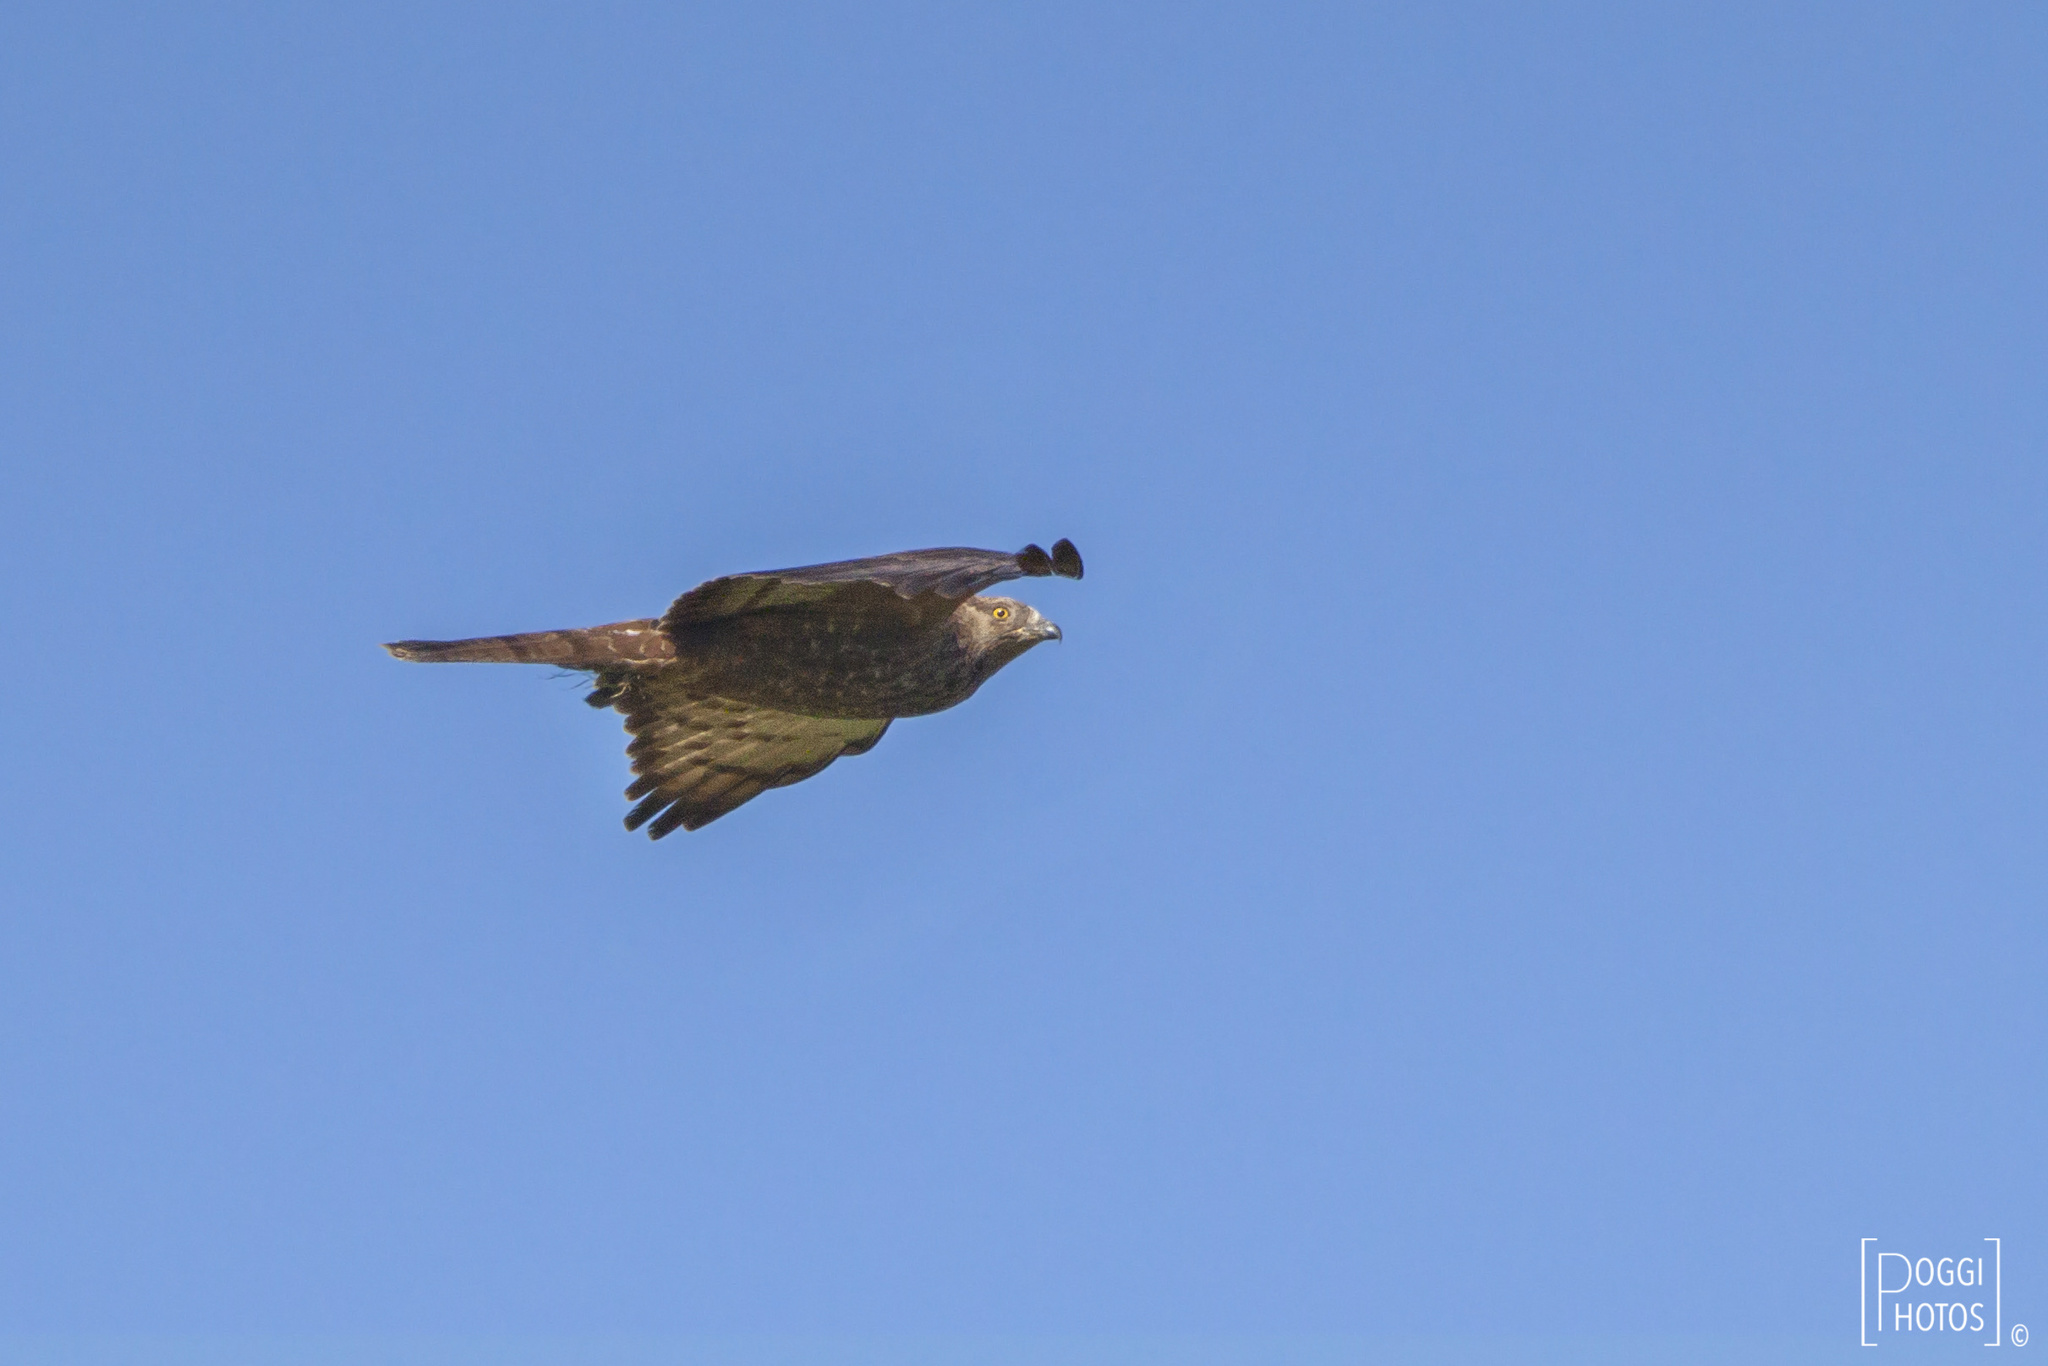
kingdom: Animalia
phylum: Chordata
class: Aves
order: Accipitriformes
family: Accipitridae
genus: Pernis
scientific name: Pernis apivorus
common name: European honey buzzard
